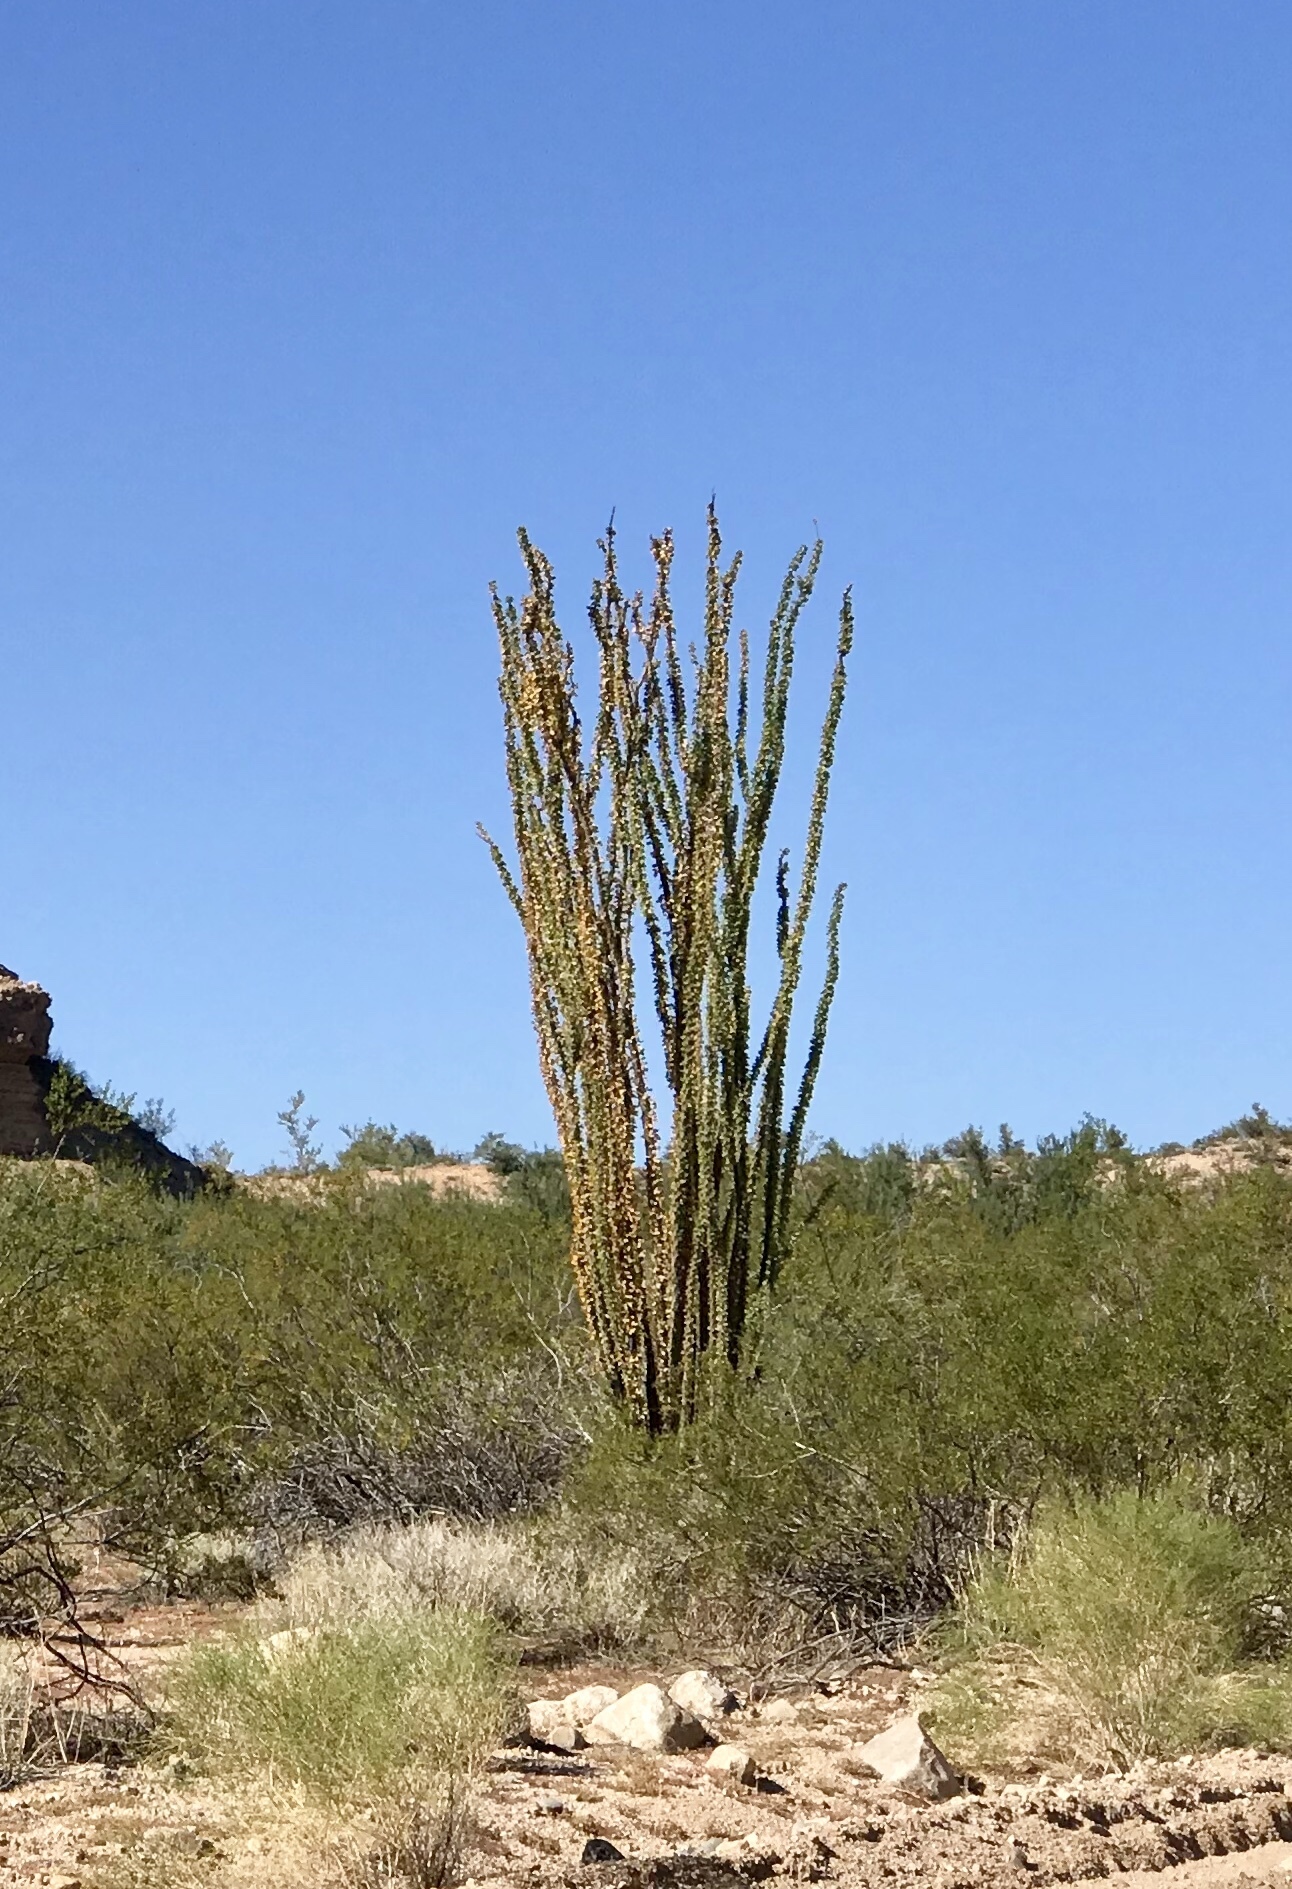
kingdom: Plantae
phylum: Tracheophyta
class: Magnoliopsida
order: Ericales
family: Fouquieriaceae
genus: Fouquieria
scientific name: Fouquieria splendens
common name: Vine-cactus
